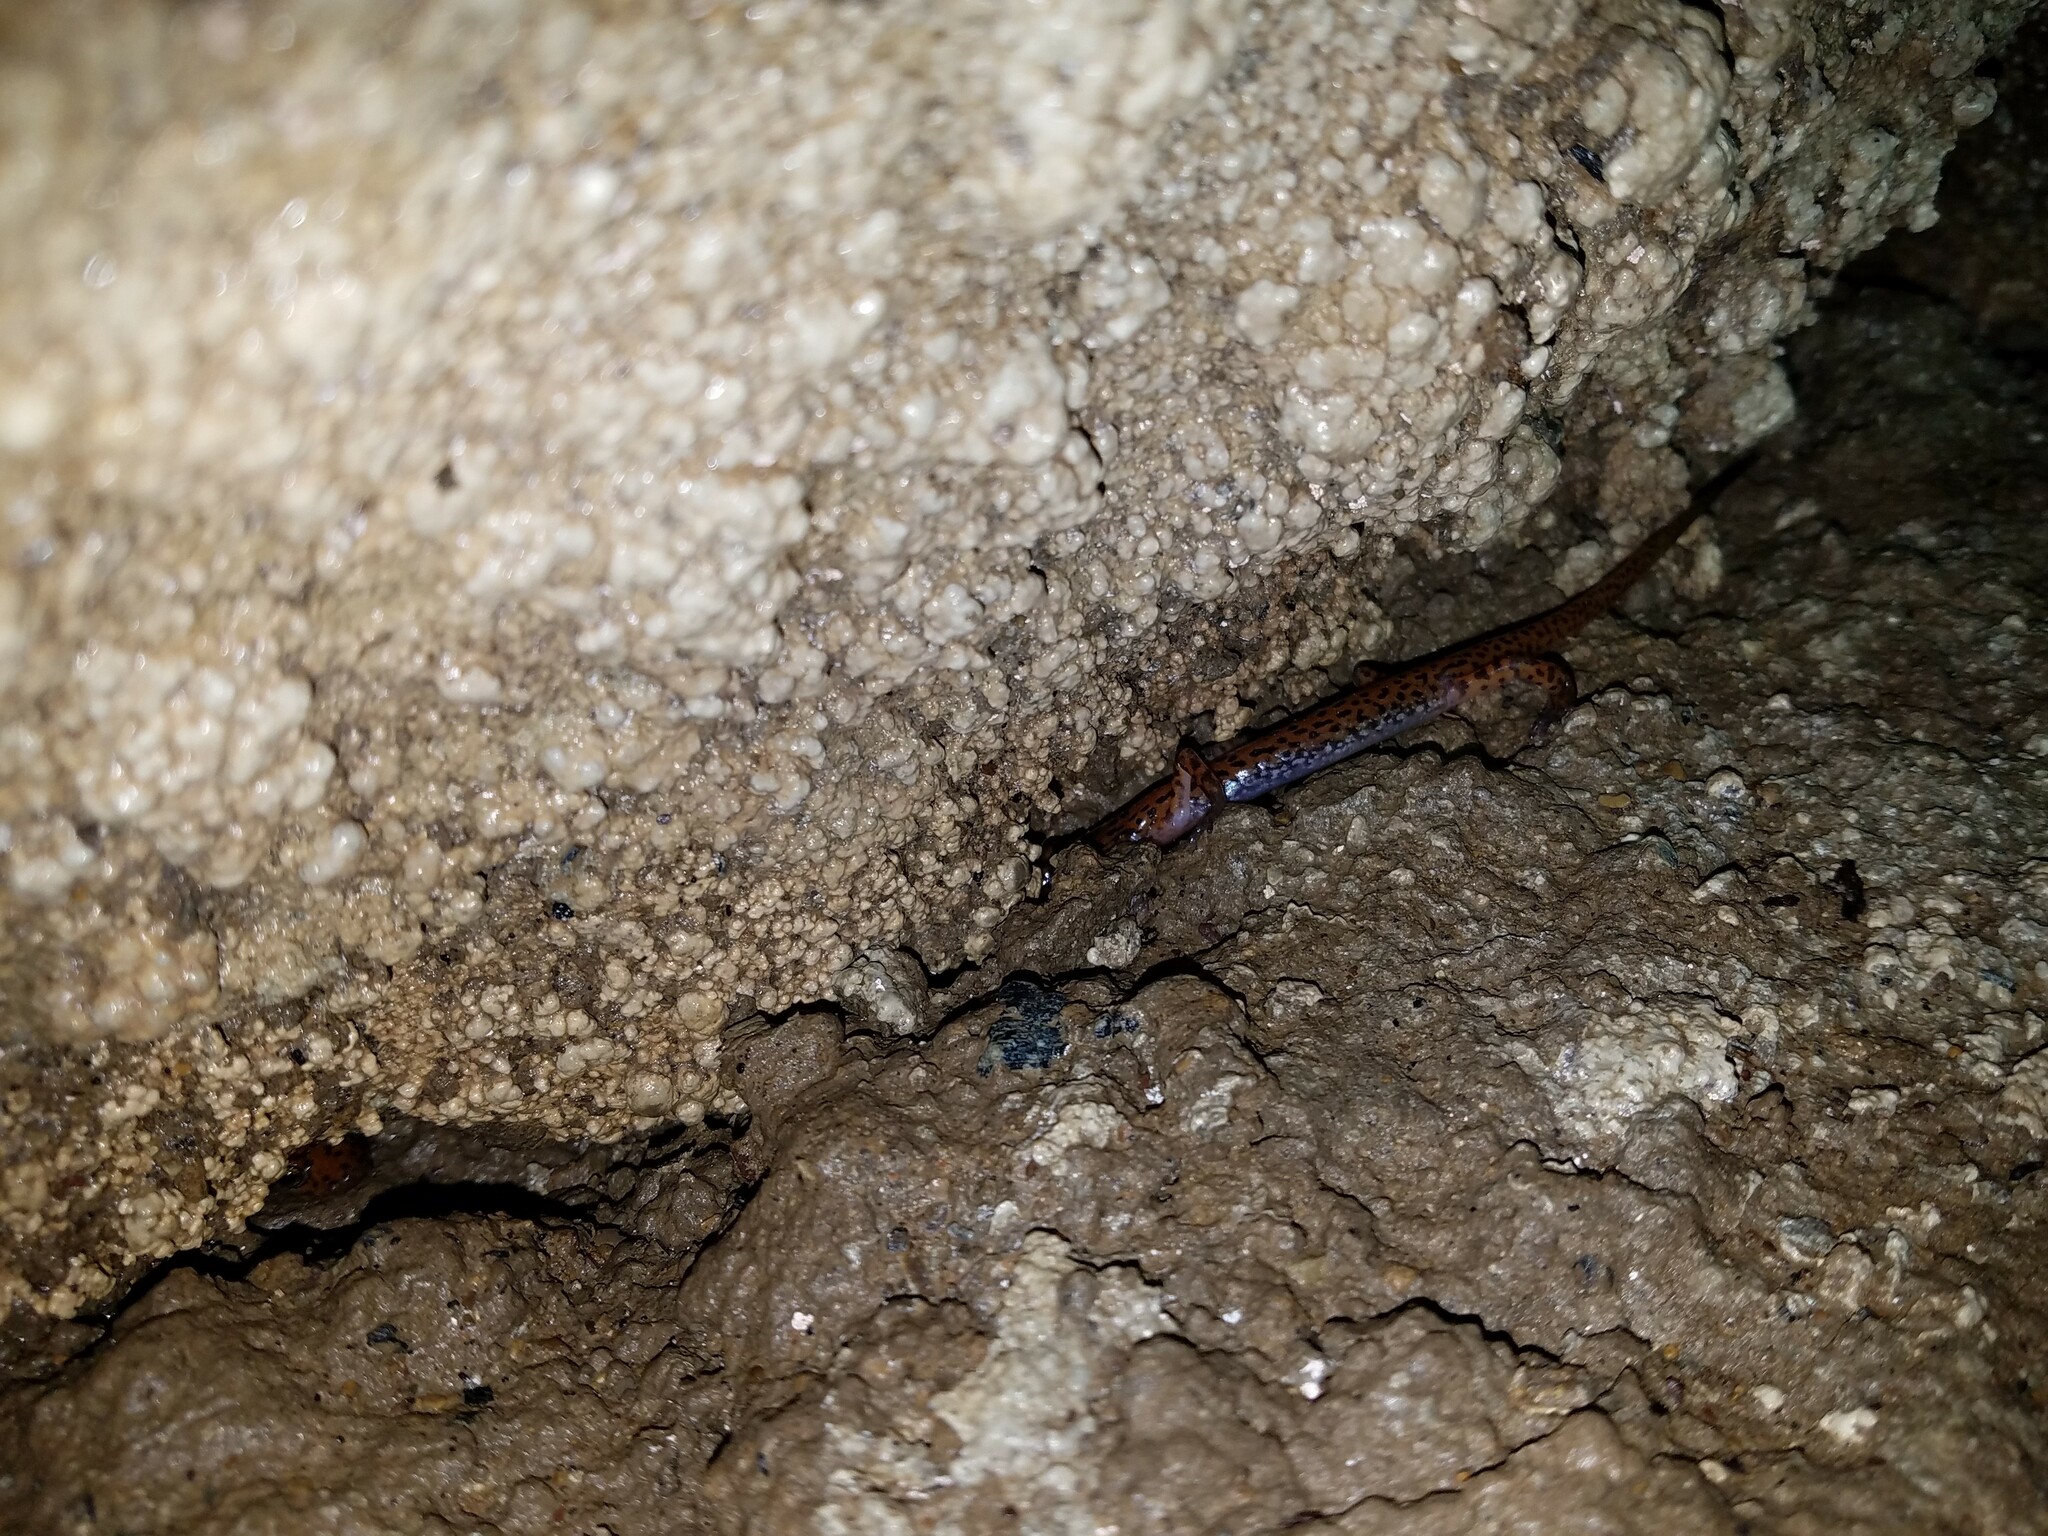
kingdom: Animalia
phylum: Chordata
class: Amphibia
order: Caudata
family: Plethodontidae
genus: Eurycea
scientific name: Eurycea lucifuga
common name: Cave salamander
